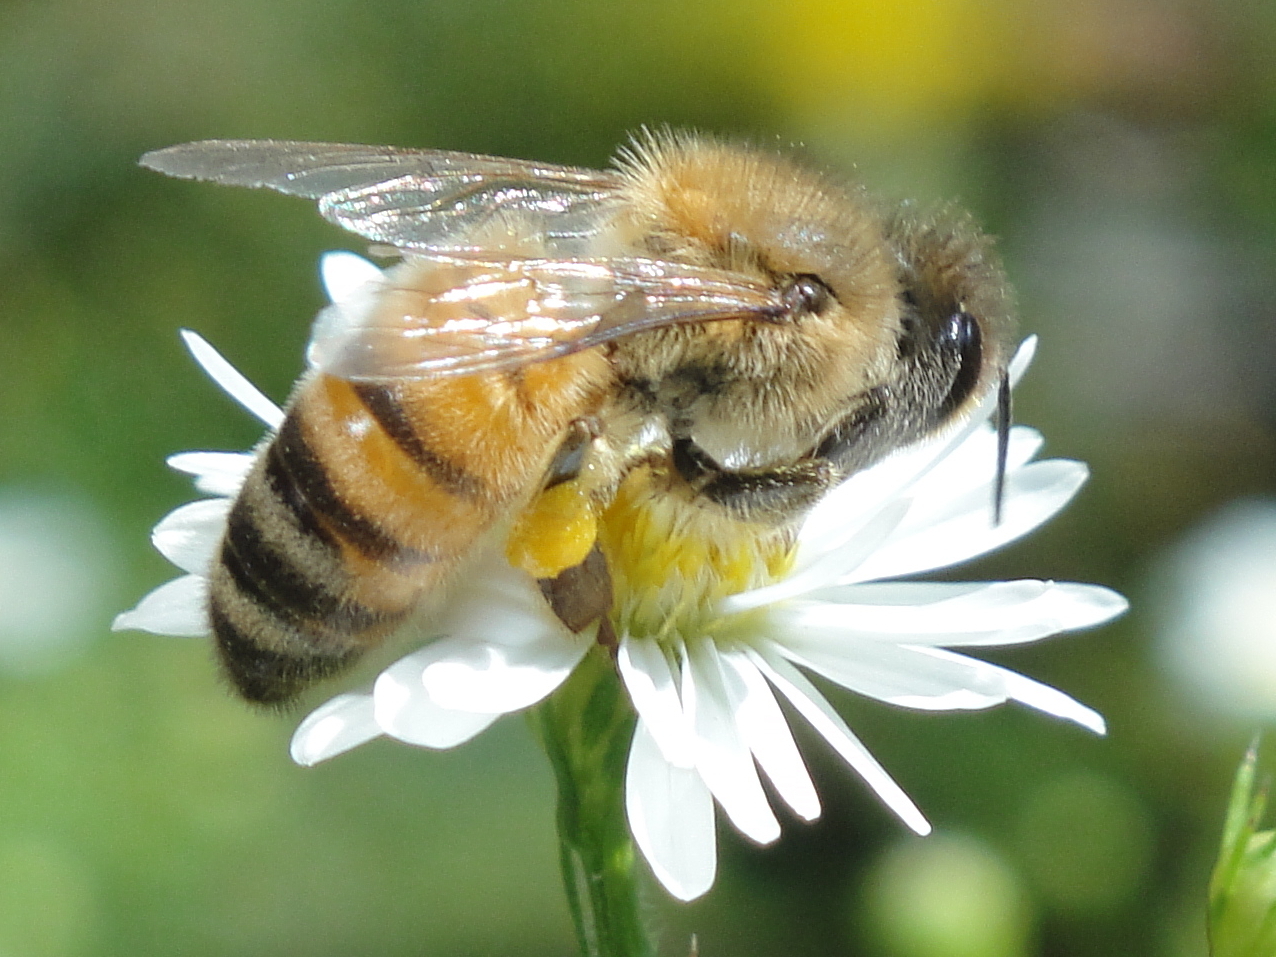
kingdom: Animalia
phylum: Arthropoda
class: Insecta
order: Hymenoptera
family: Apidae
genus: Apis
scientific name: Apis mellifera
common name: Honey bee
